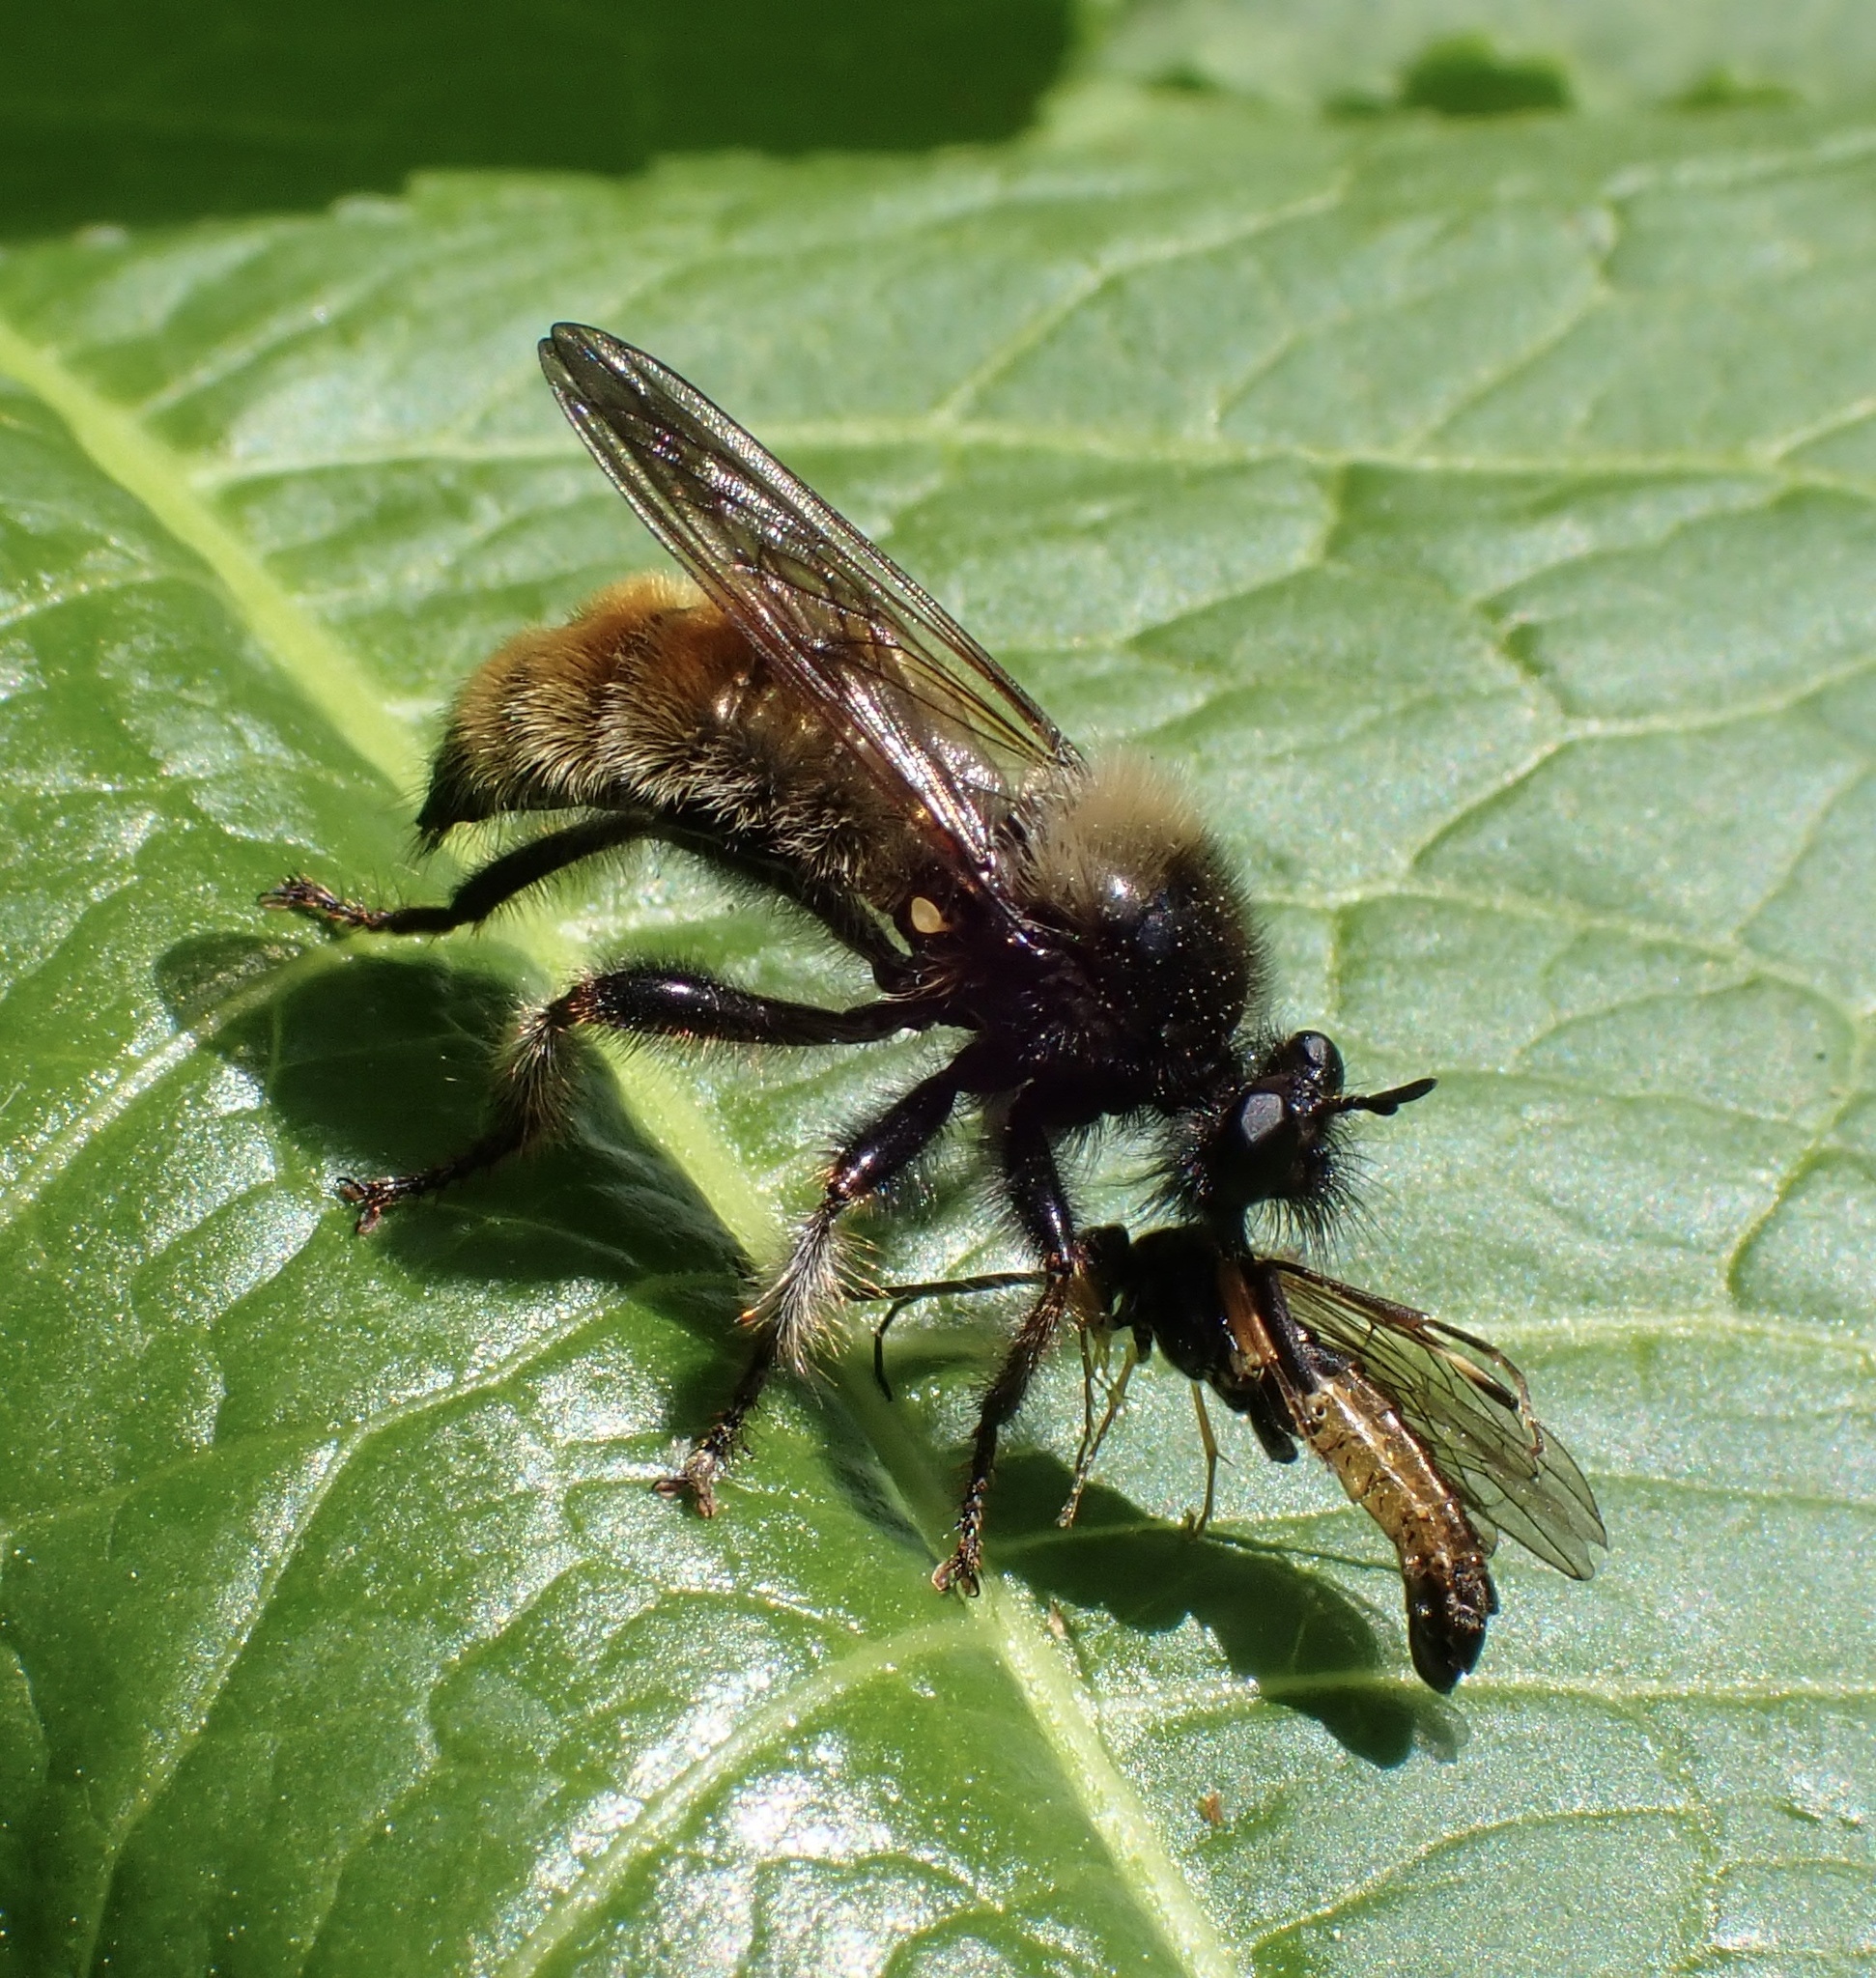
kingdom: Animalia
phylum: Arthropoda
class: Insecta
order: Diptera
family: Asilidae
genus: Laphria
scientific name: Laphria flava
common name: Bumblebee robberfly
